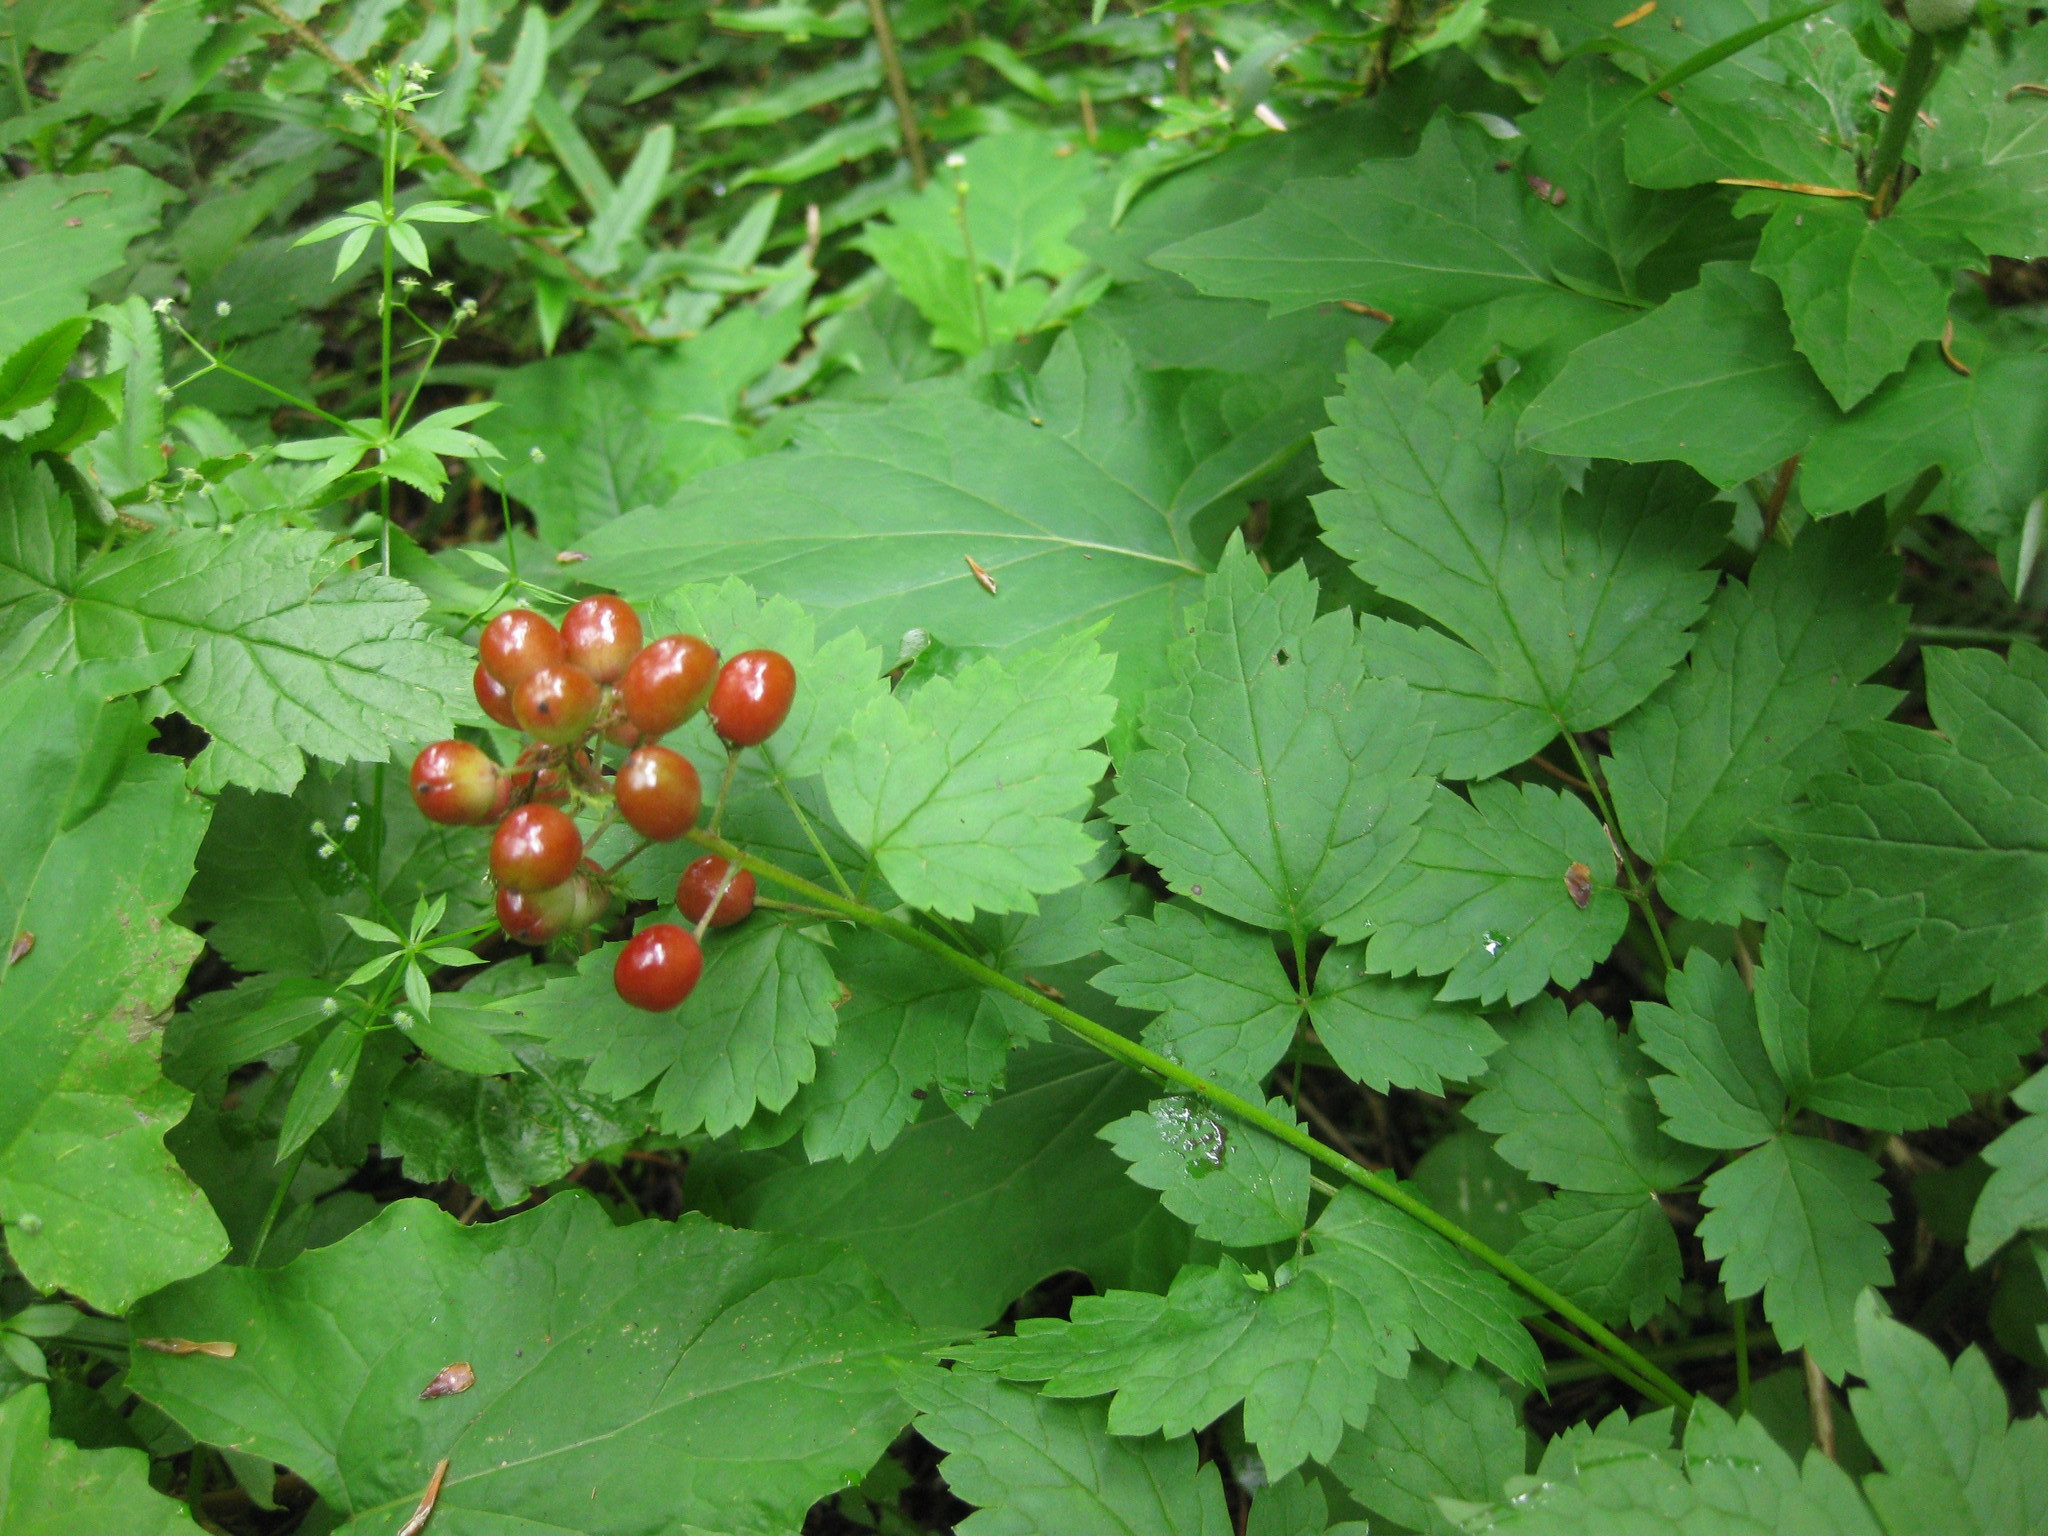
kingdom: Plantae
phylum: Tracheophyta
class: Magnoliopsida
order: Ranunculales
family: Ranunculaceae
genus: Actaea
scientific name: Actaea rubra
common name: Red baneberry
